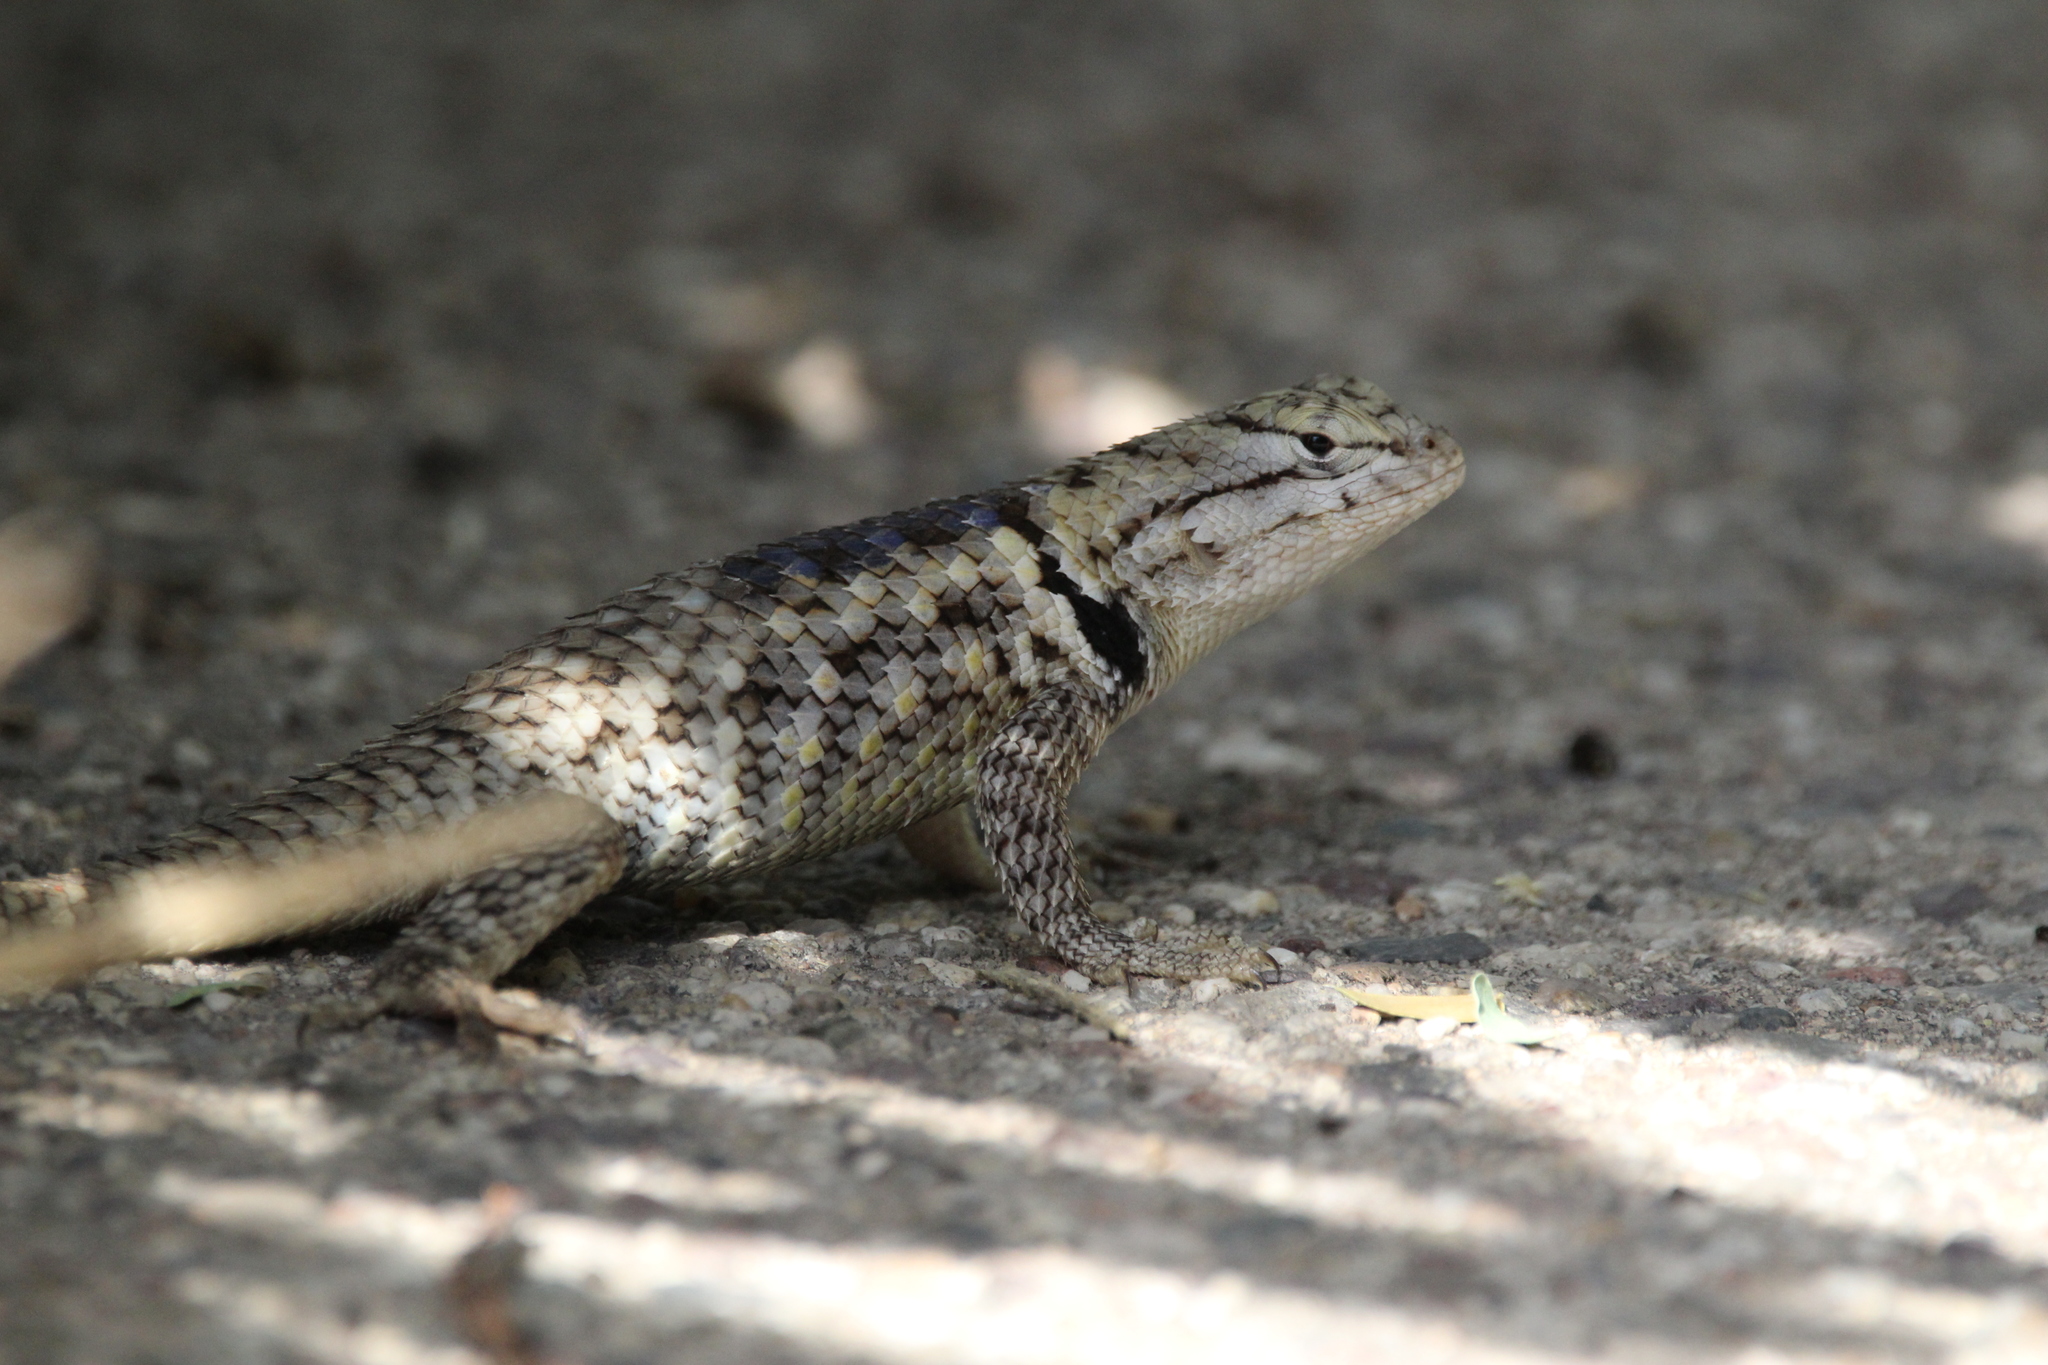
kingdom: Animalia
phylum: Chordata
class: Squamata
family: Phrynosomatidae
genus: Sceloporus
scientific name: Sceloporus magister
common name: Desert spiny lizard
